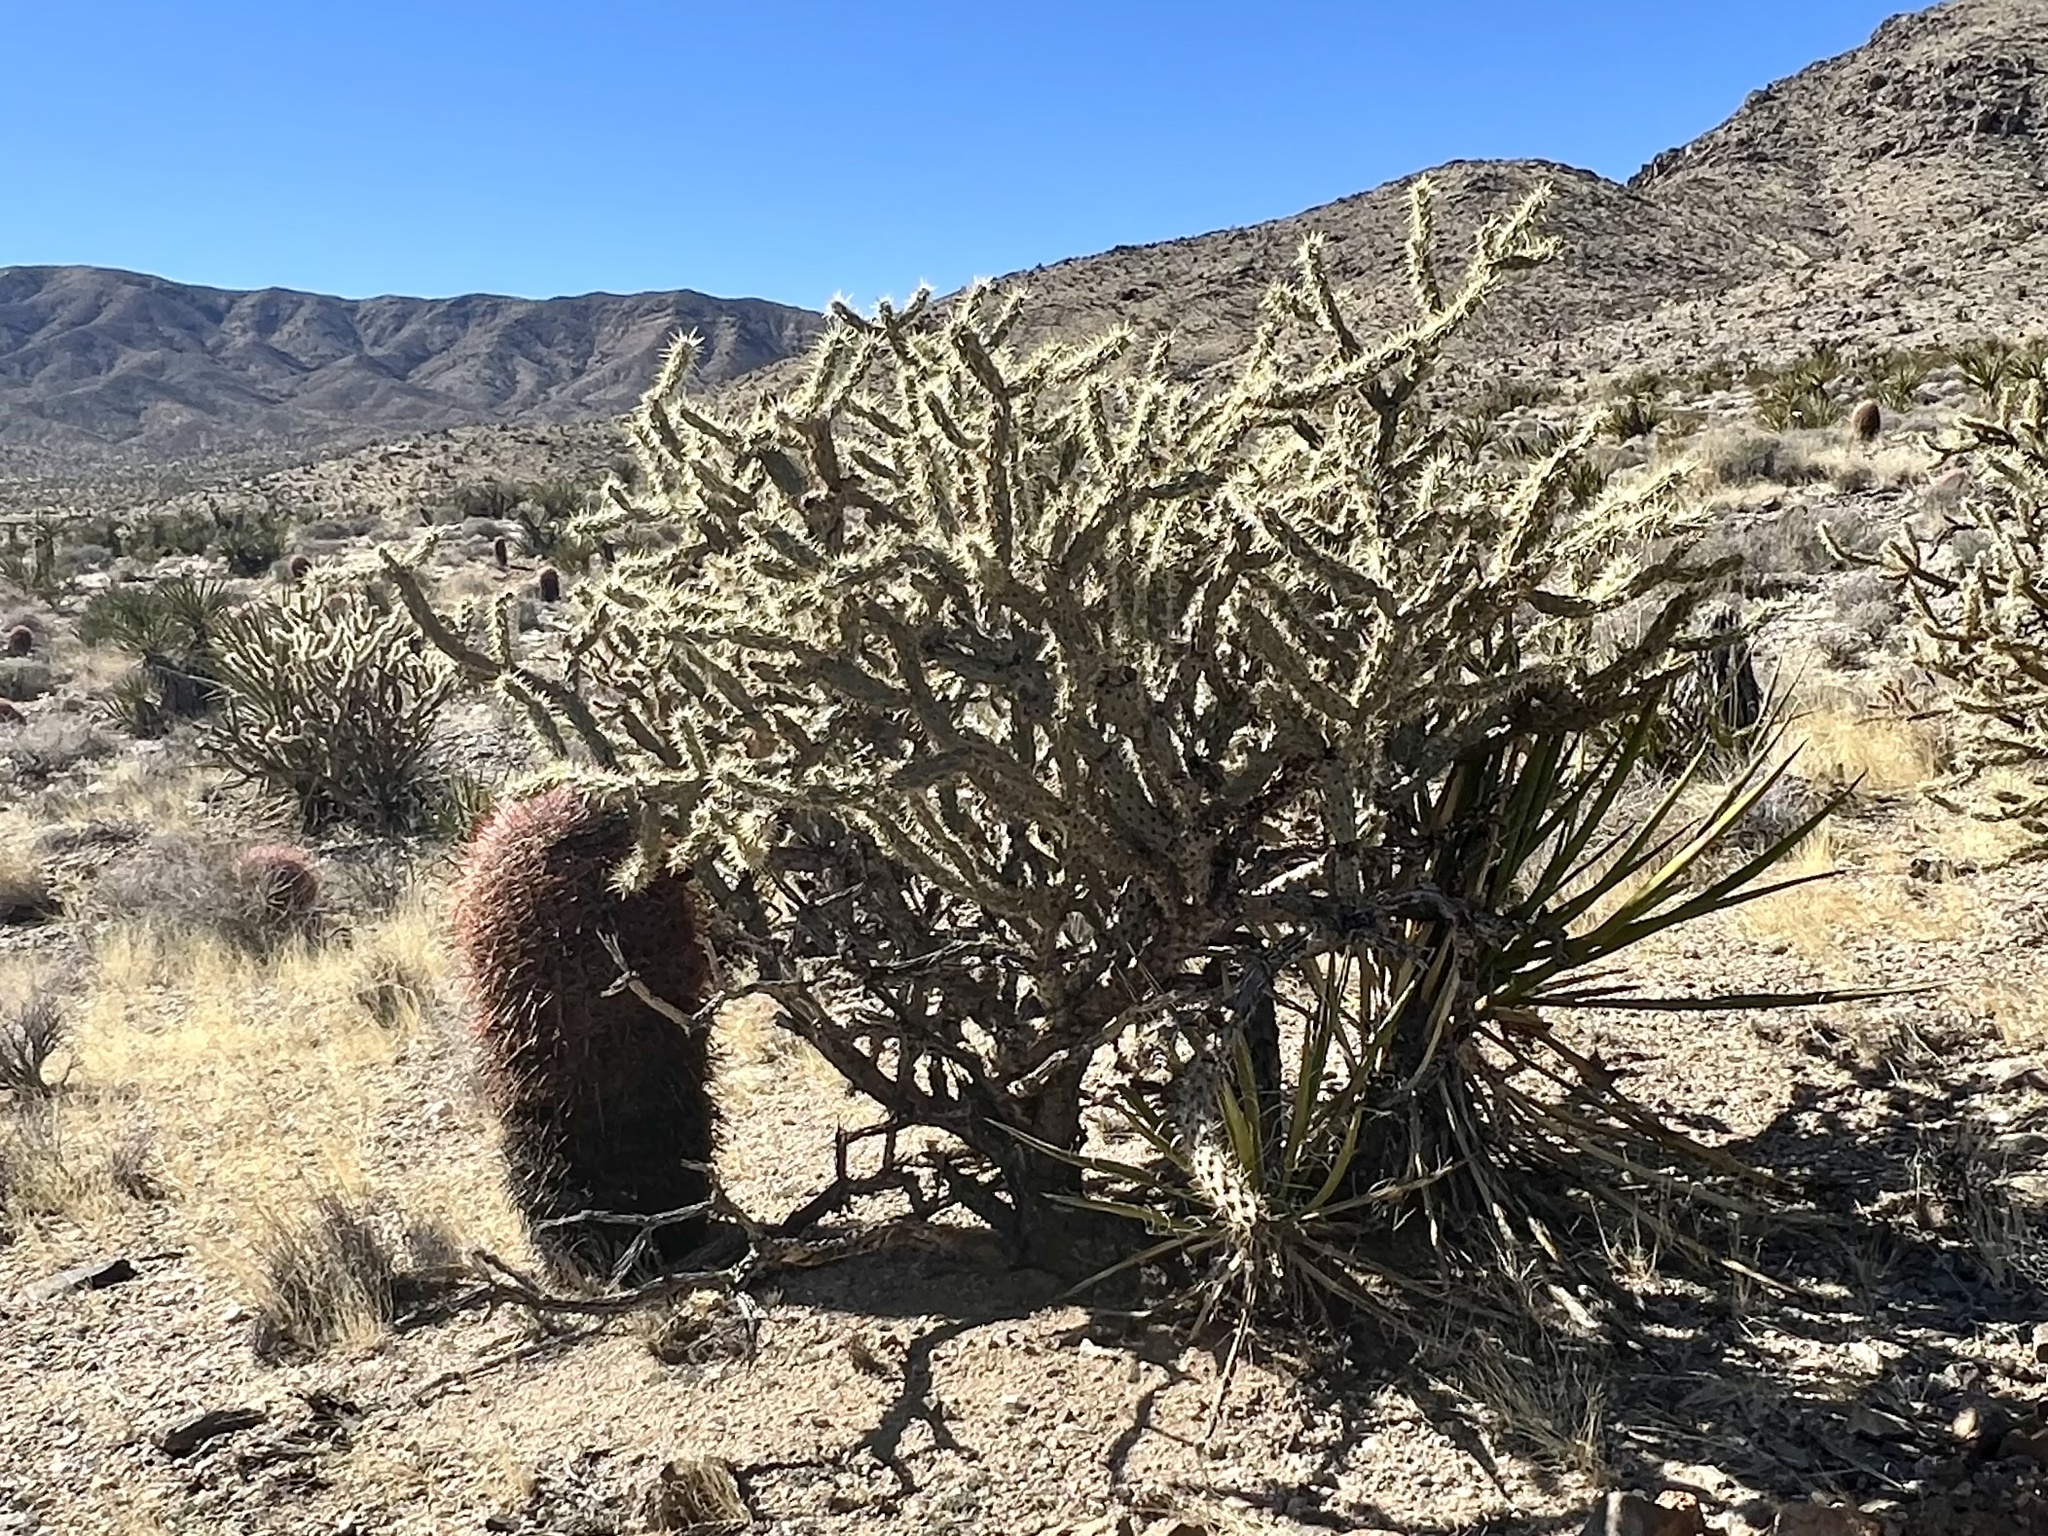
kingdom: Plantae
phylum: Tracheophyta
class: Magnoliopsida
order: Caryophyllales
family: Cactaceae
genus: Cylindropuntia
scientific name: Cylindropuntia acanthocarpa
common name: Buckhorn cholla
